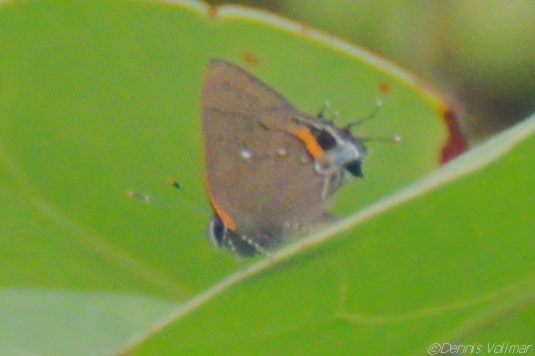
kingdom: Animalia
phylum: Arthropoda
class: Insecta
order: Lepidoptera
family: Lycaenidae
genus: Thecla
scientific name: Thecla angelia
